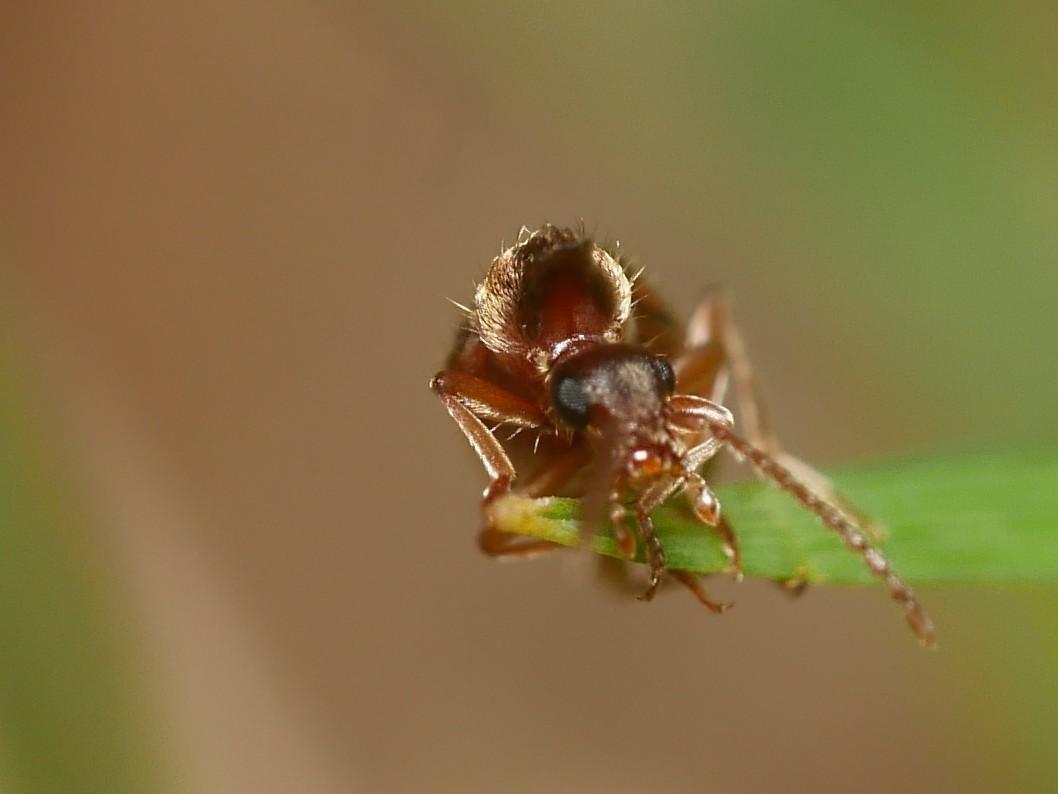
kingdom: Animalia
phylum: Arthropoda
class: Insecta
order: Coleoptera
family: Anthicidae
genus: Notoxus
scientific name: Notoxus monoceros
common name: Monoceros beetle
